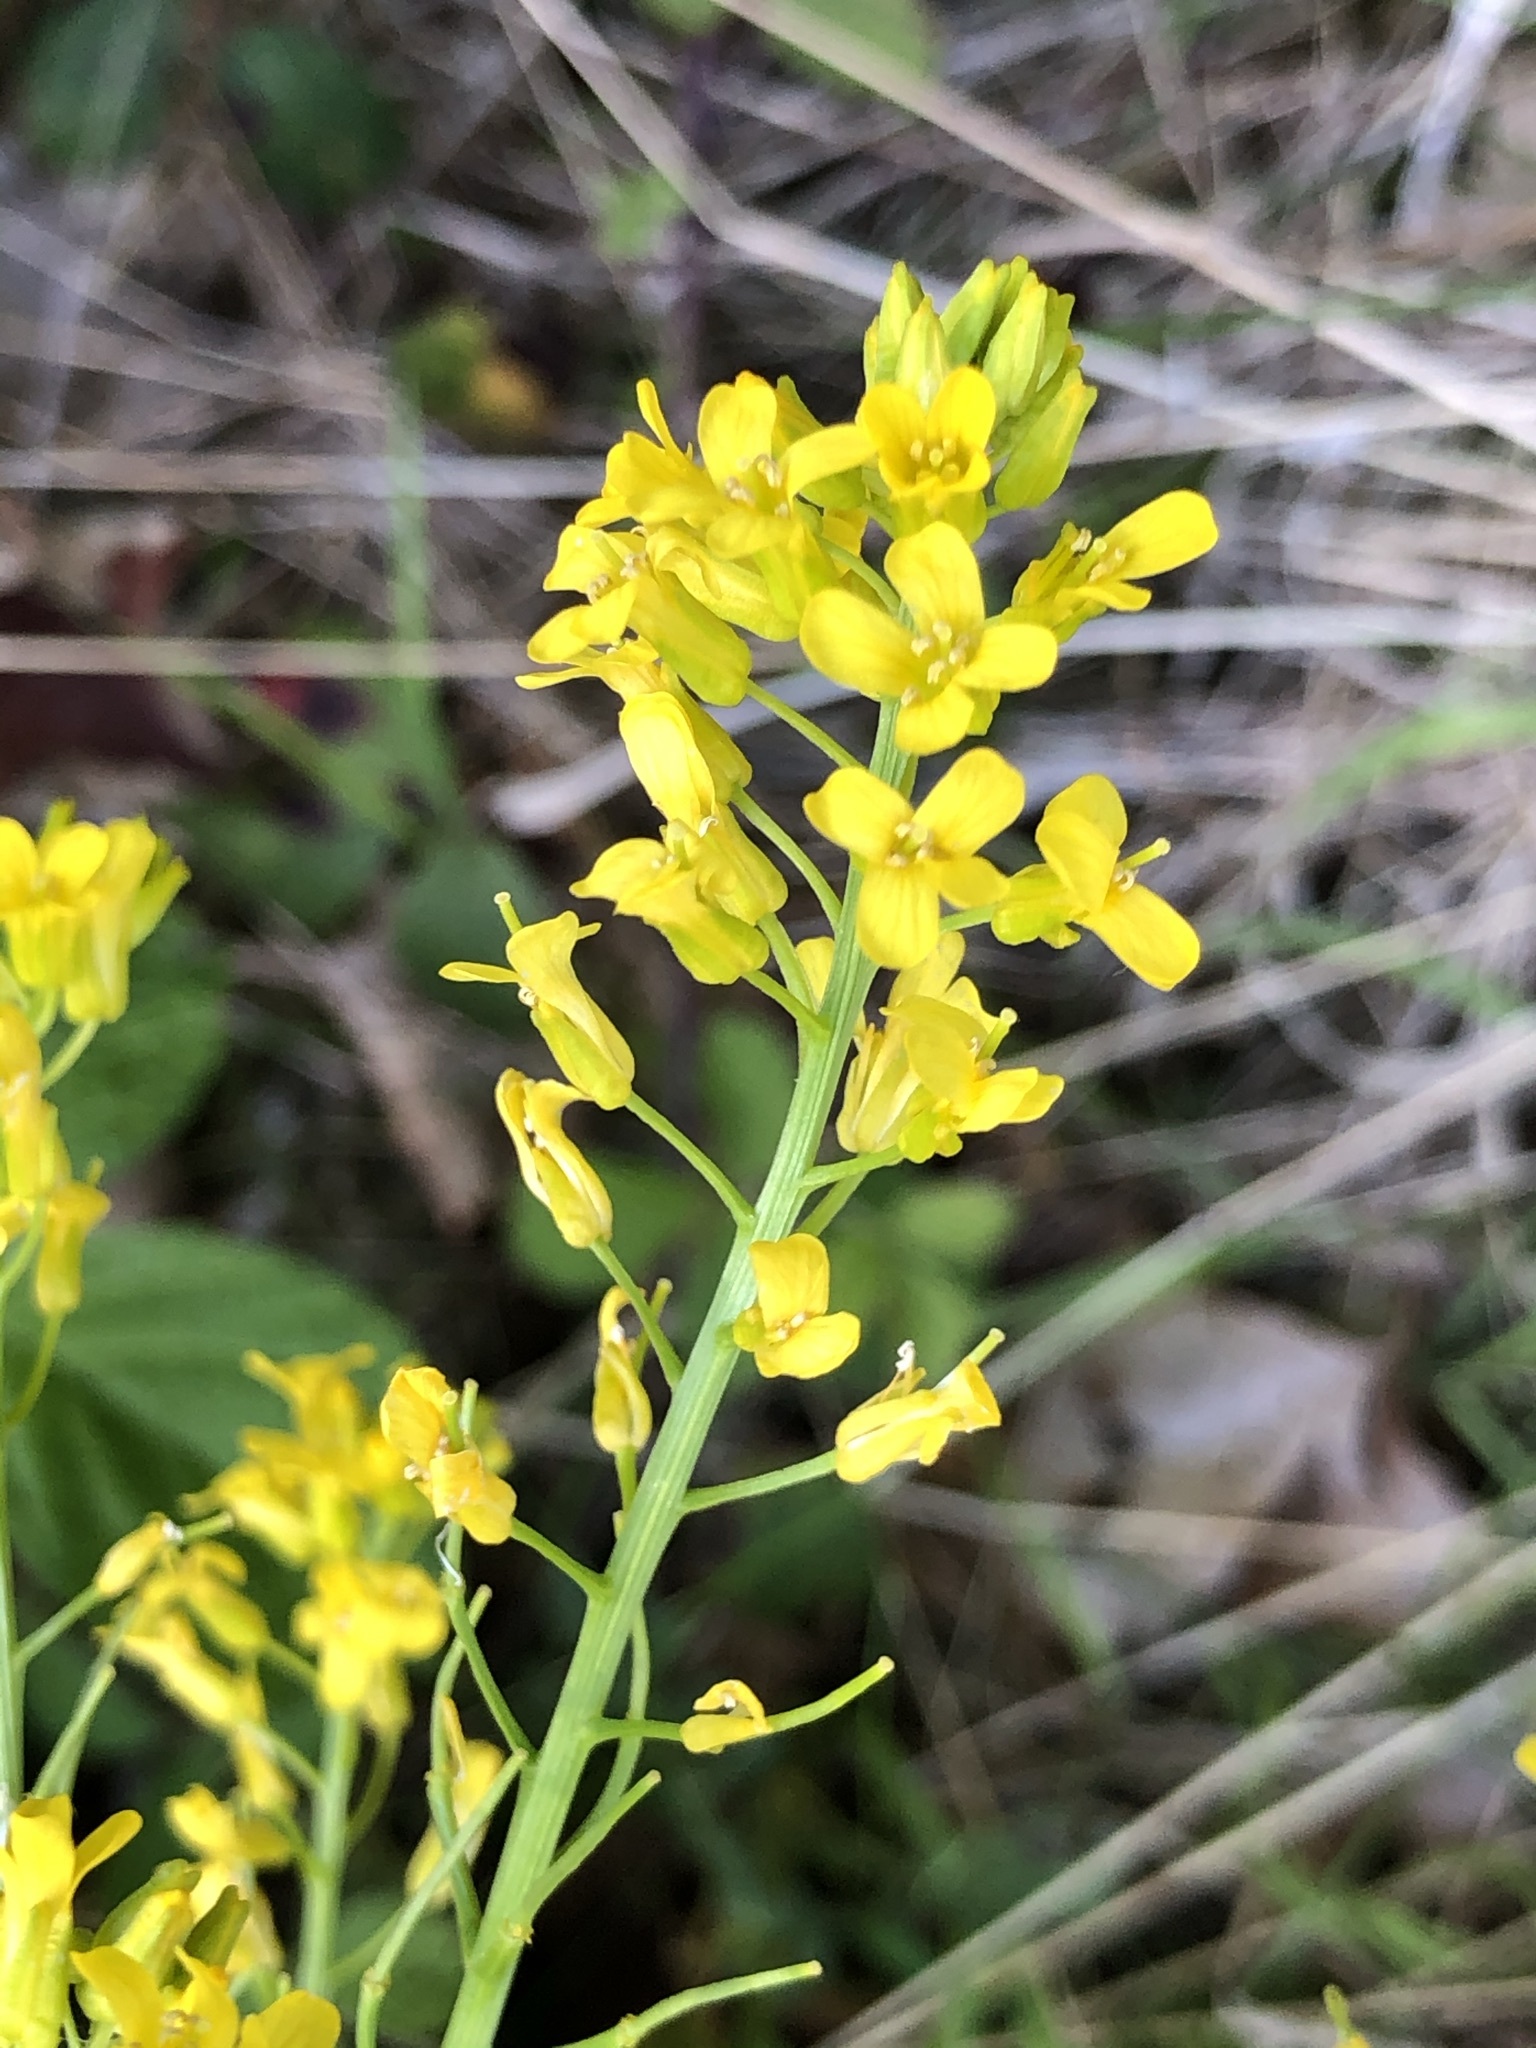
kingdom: Plantae
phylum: Tracheophyta
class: Magnoliopsida
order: Brassicales
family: Brassicaceae
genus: Barbarea
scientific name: Barbarea vulgaris
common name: Cressy-greens
